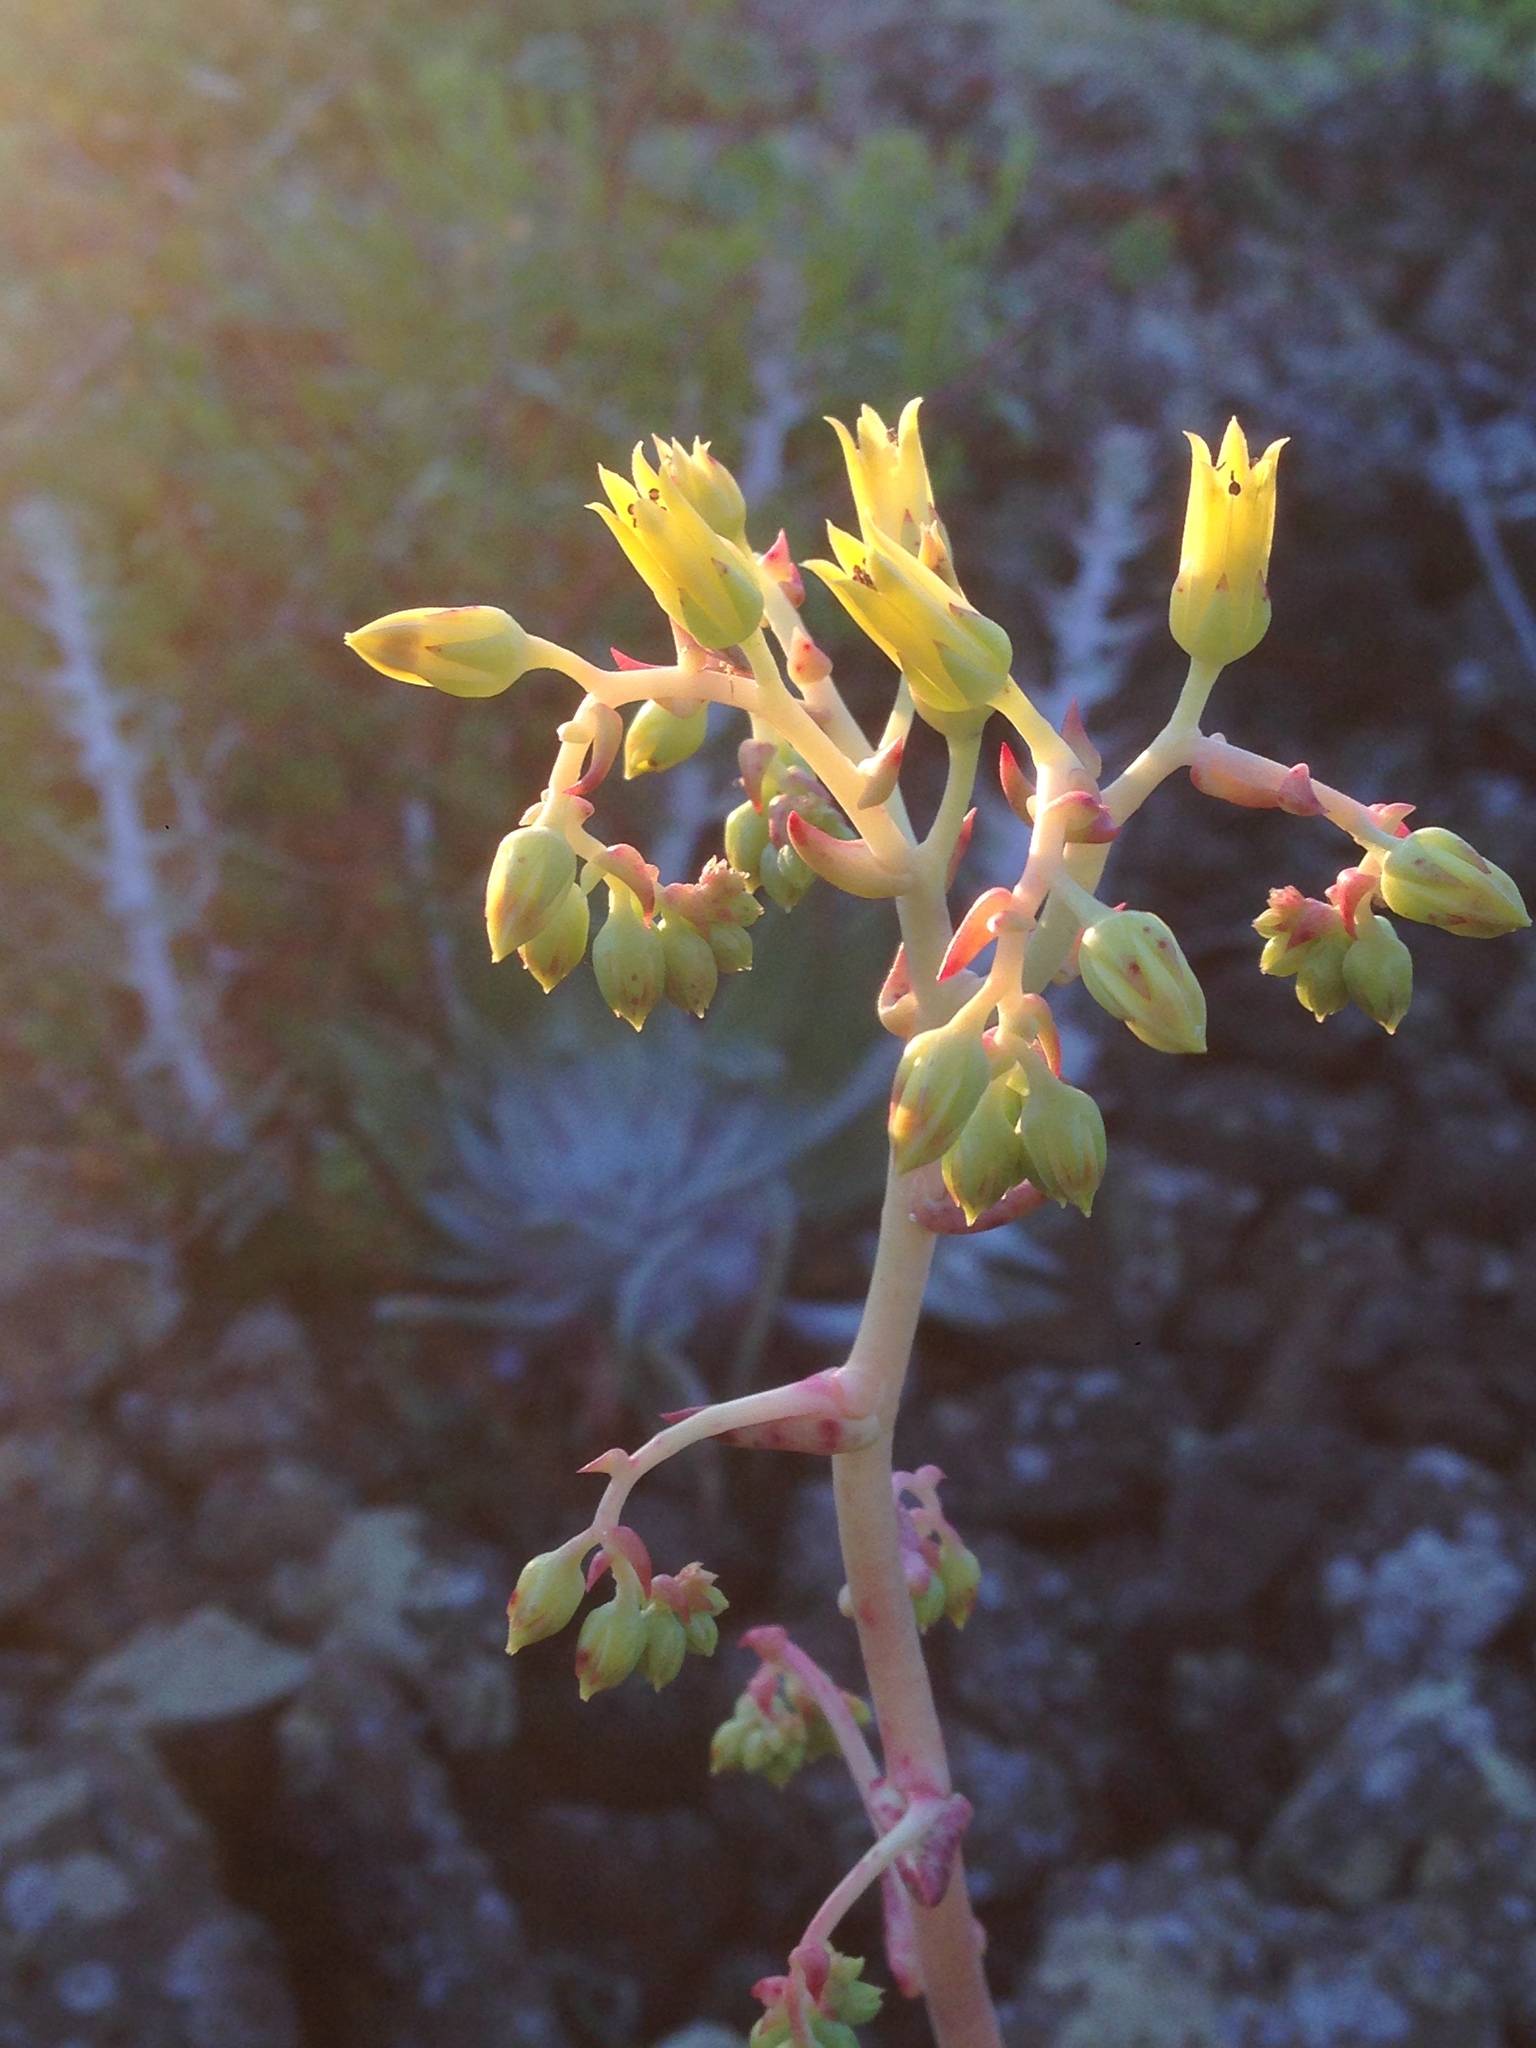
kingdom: Plantae
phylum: Tracheophyta
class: Magnoliopsida
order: Saxifragales
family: Crassulaceae
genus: Dudleya
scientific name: Dudleya cultrata
